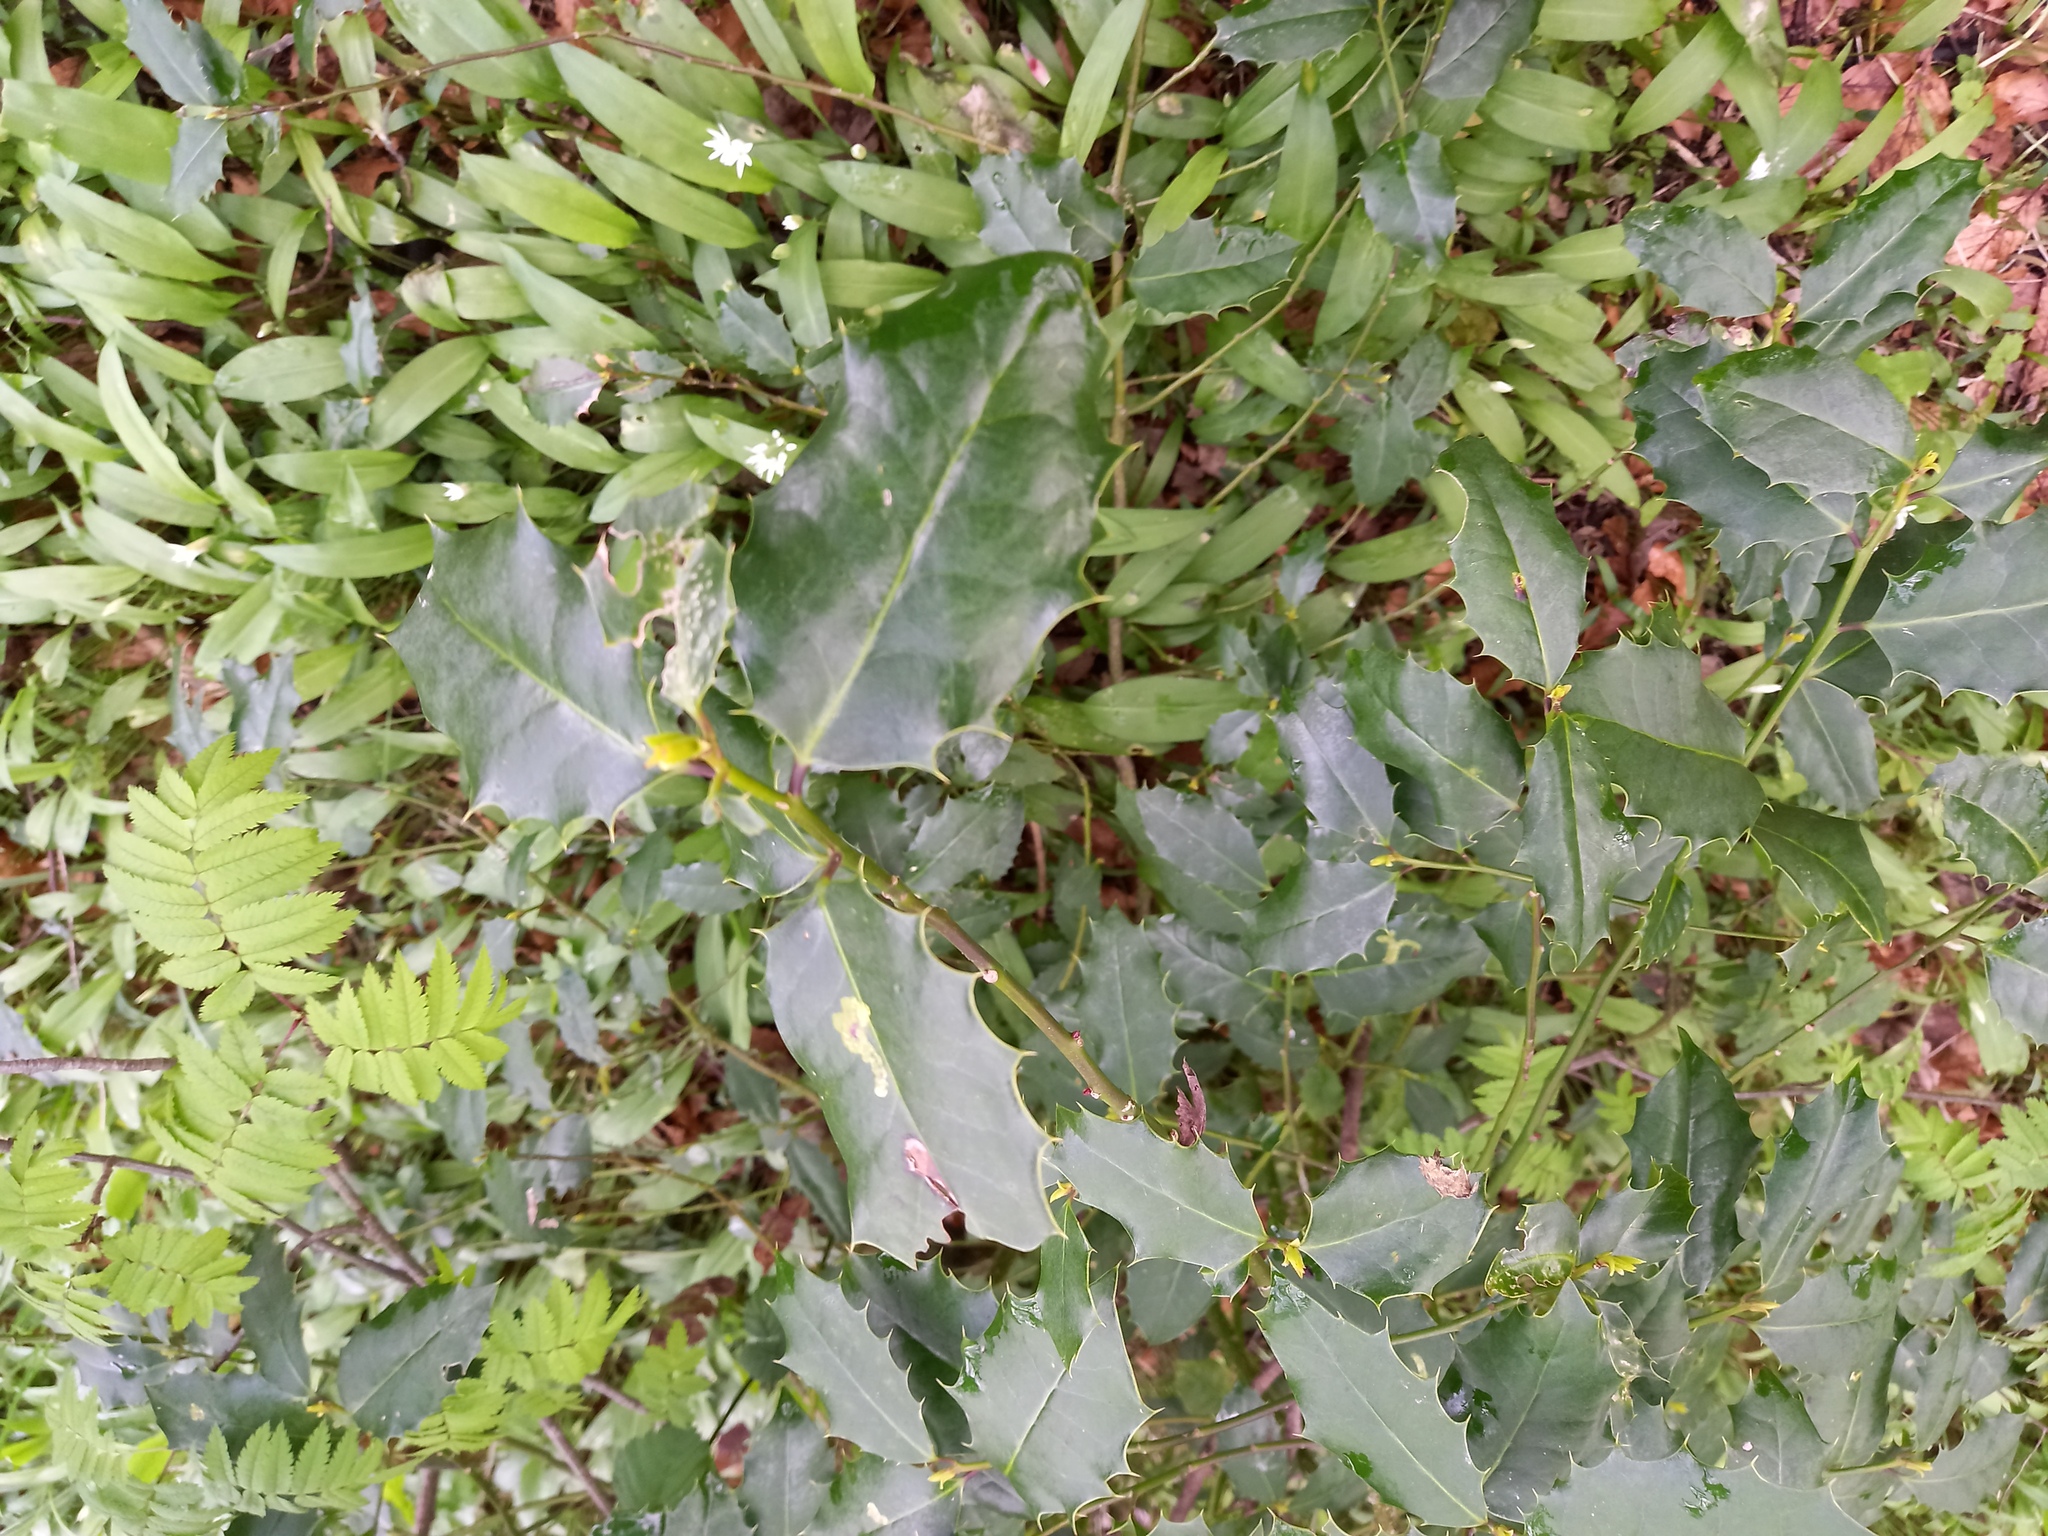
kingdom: Plantae
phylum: Tracheophyta
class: Magnoliopsida
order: Aquifoliales
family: Aquifoliaceae
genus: Ilex
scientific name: Ilex aquifolium
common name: English holly
